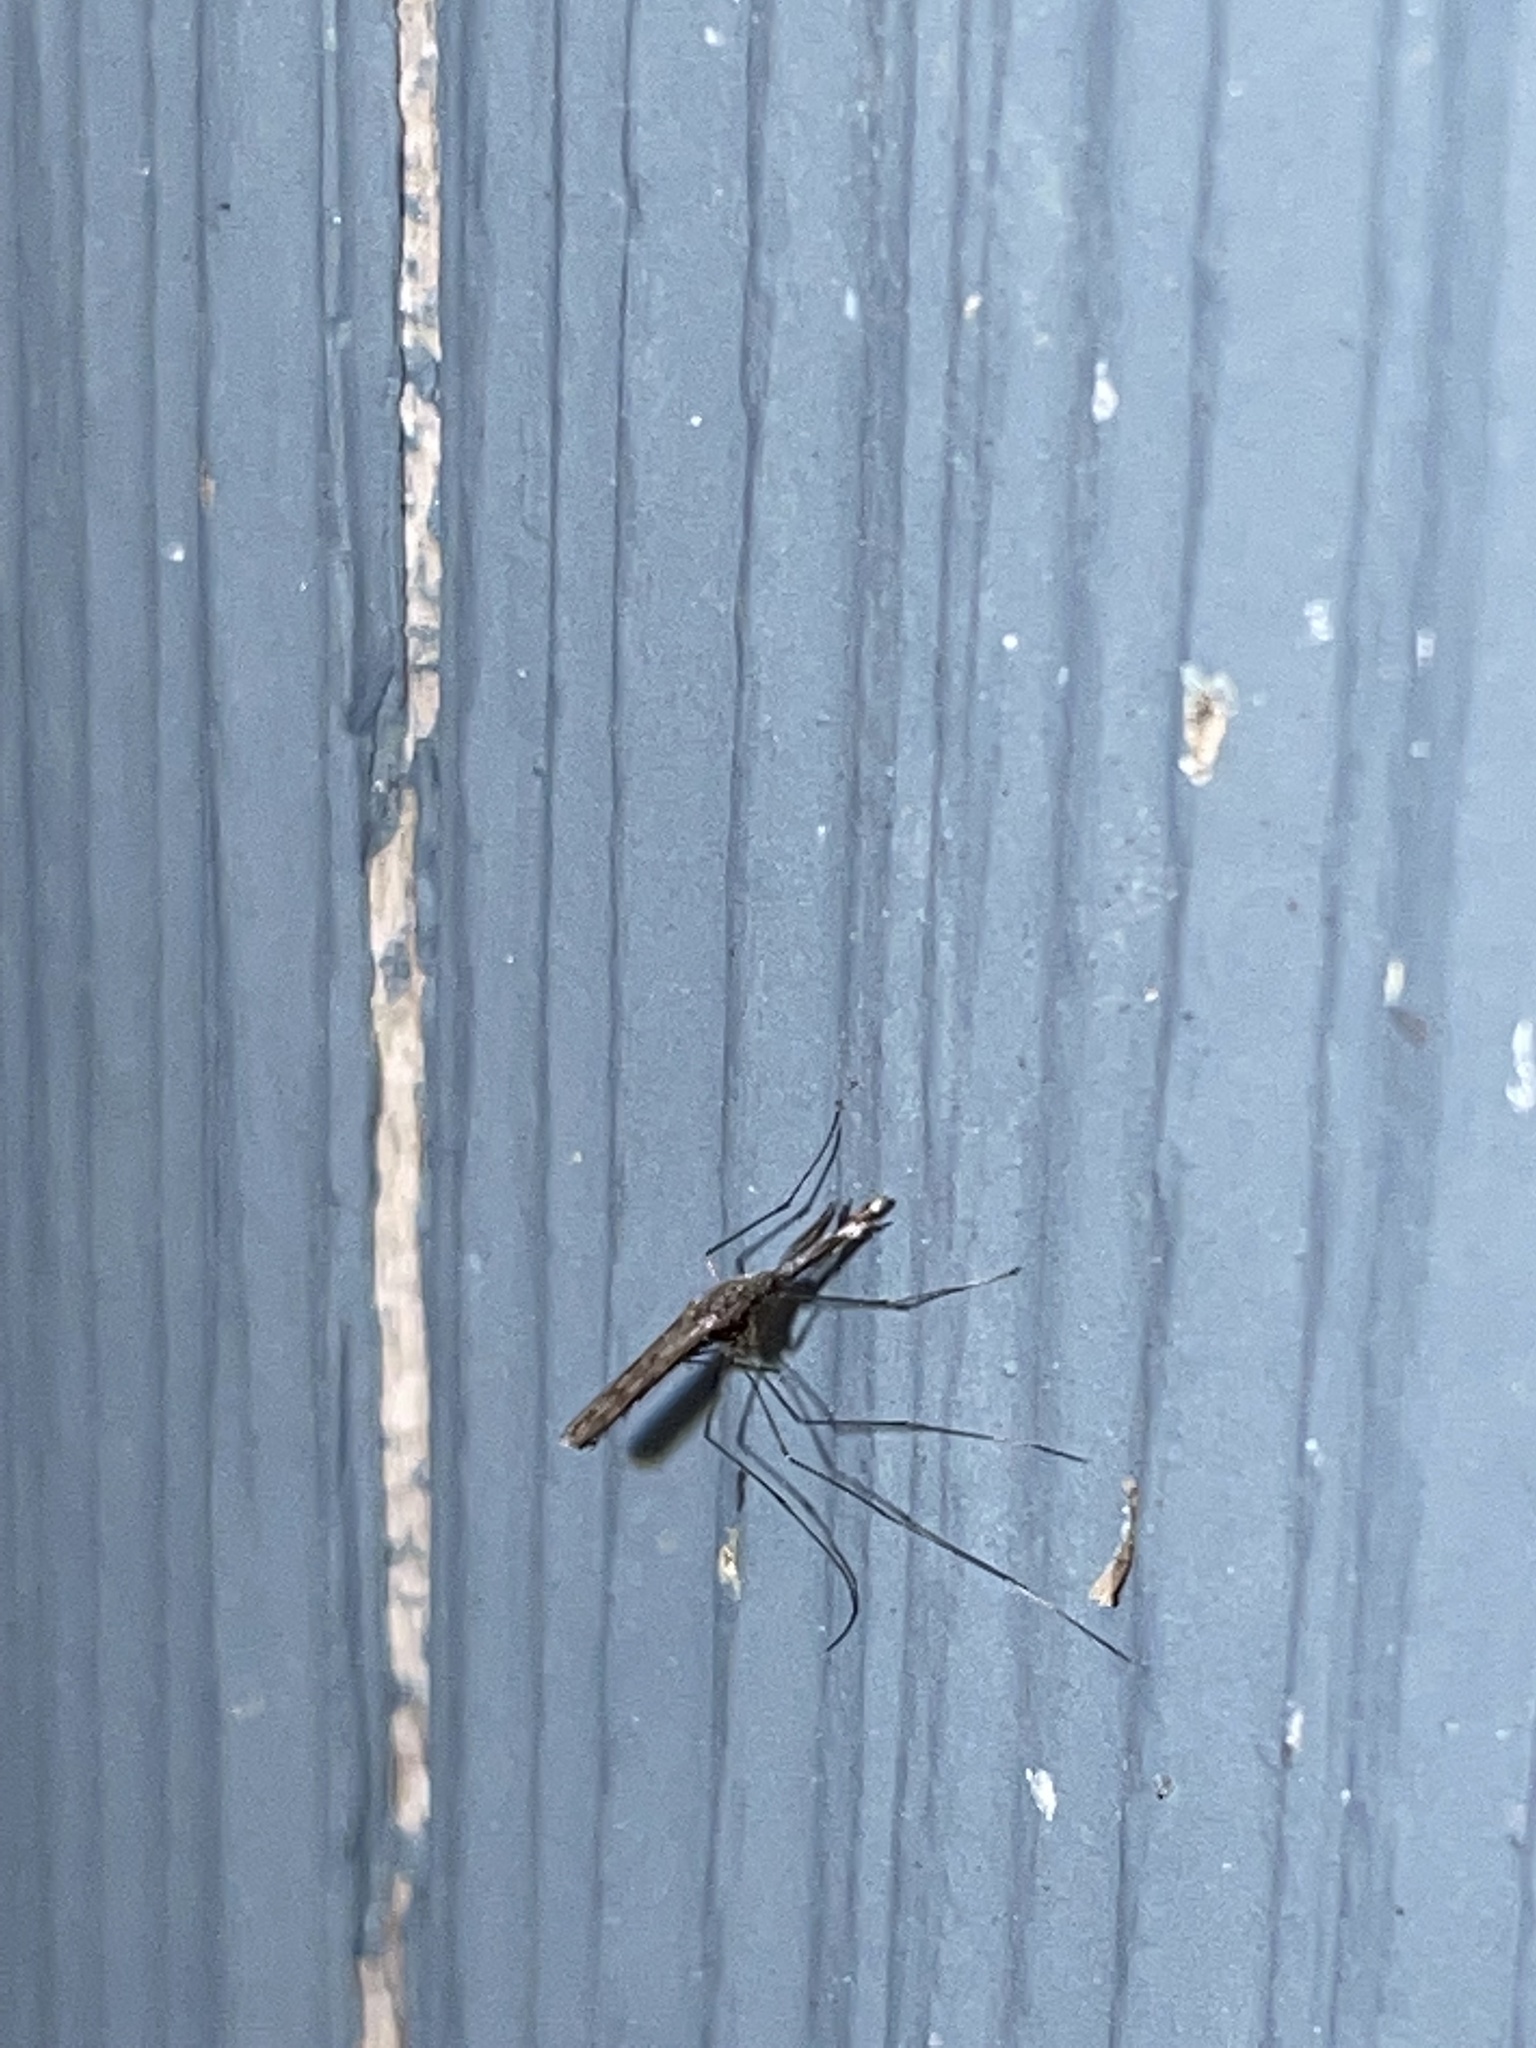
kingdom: Animalia
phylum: Arthropoda
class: Insecta
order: Diptera
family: Culicidae
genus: Anopheles
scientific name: Anopheles
